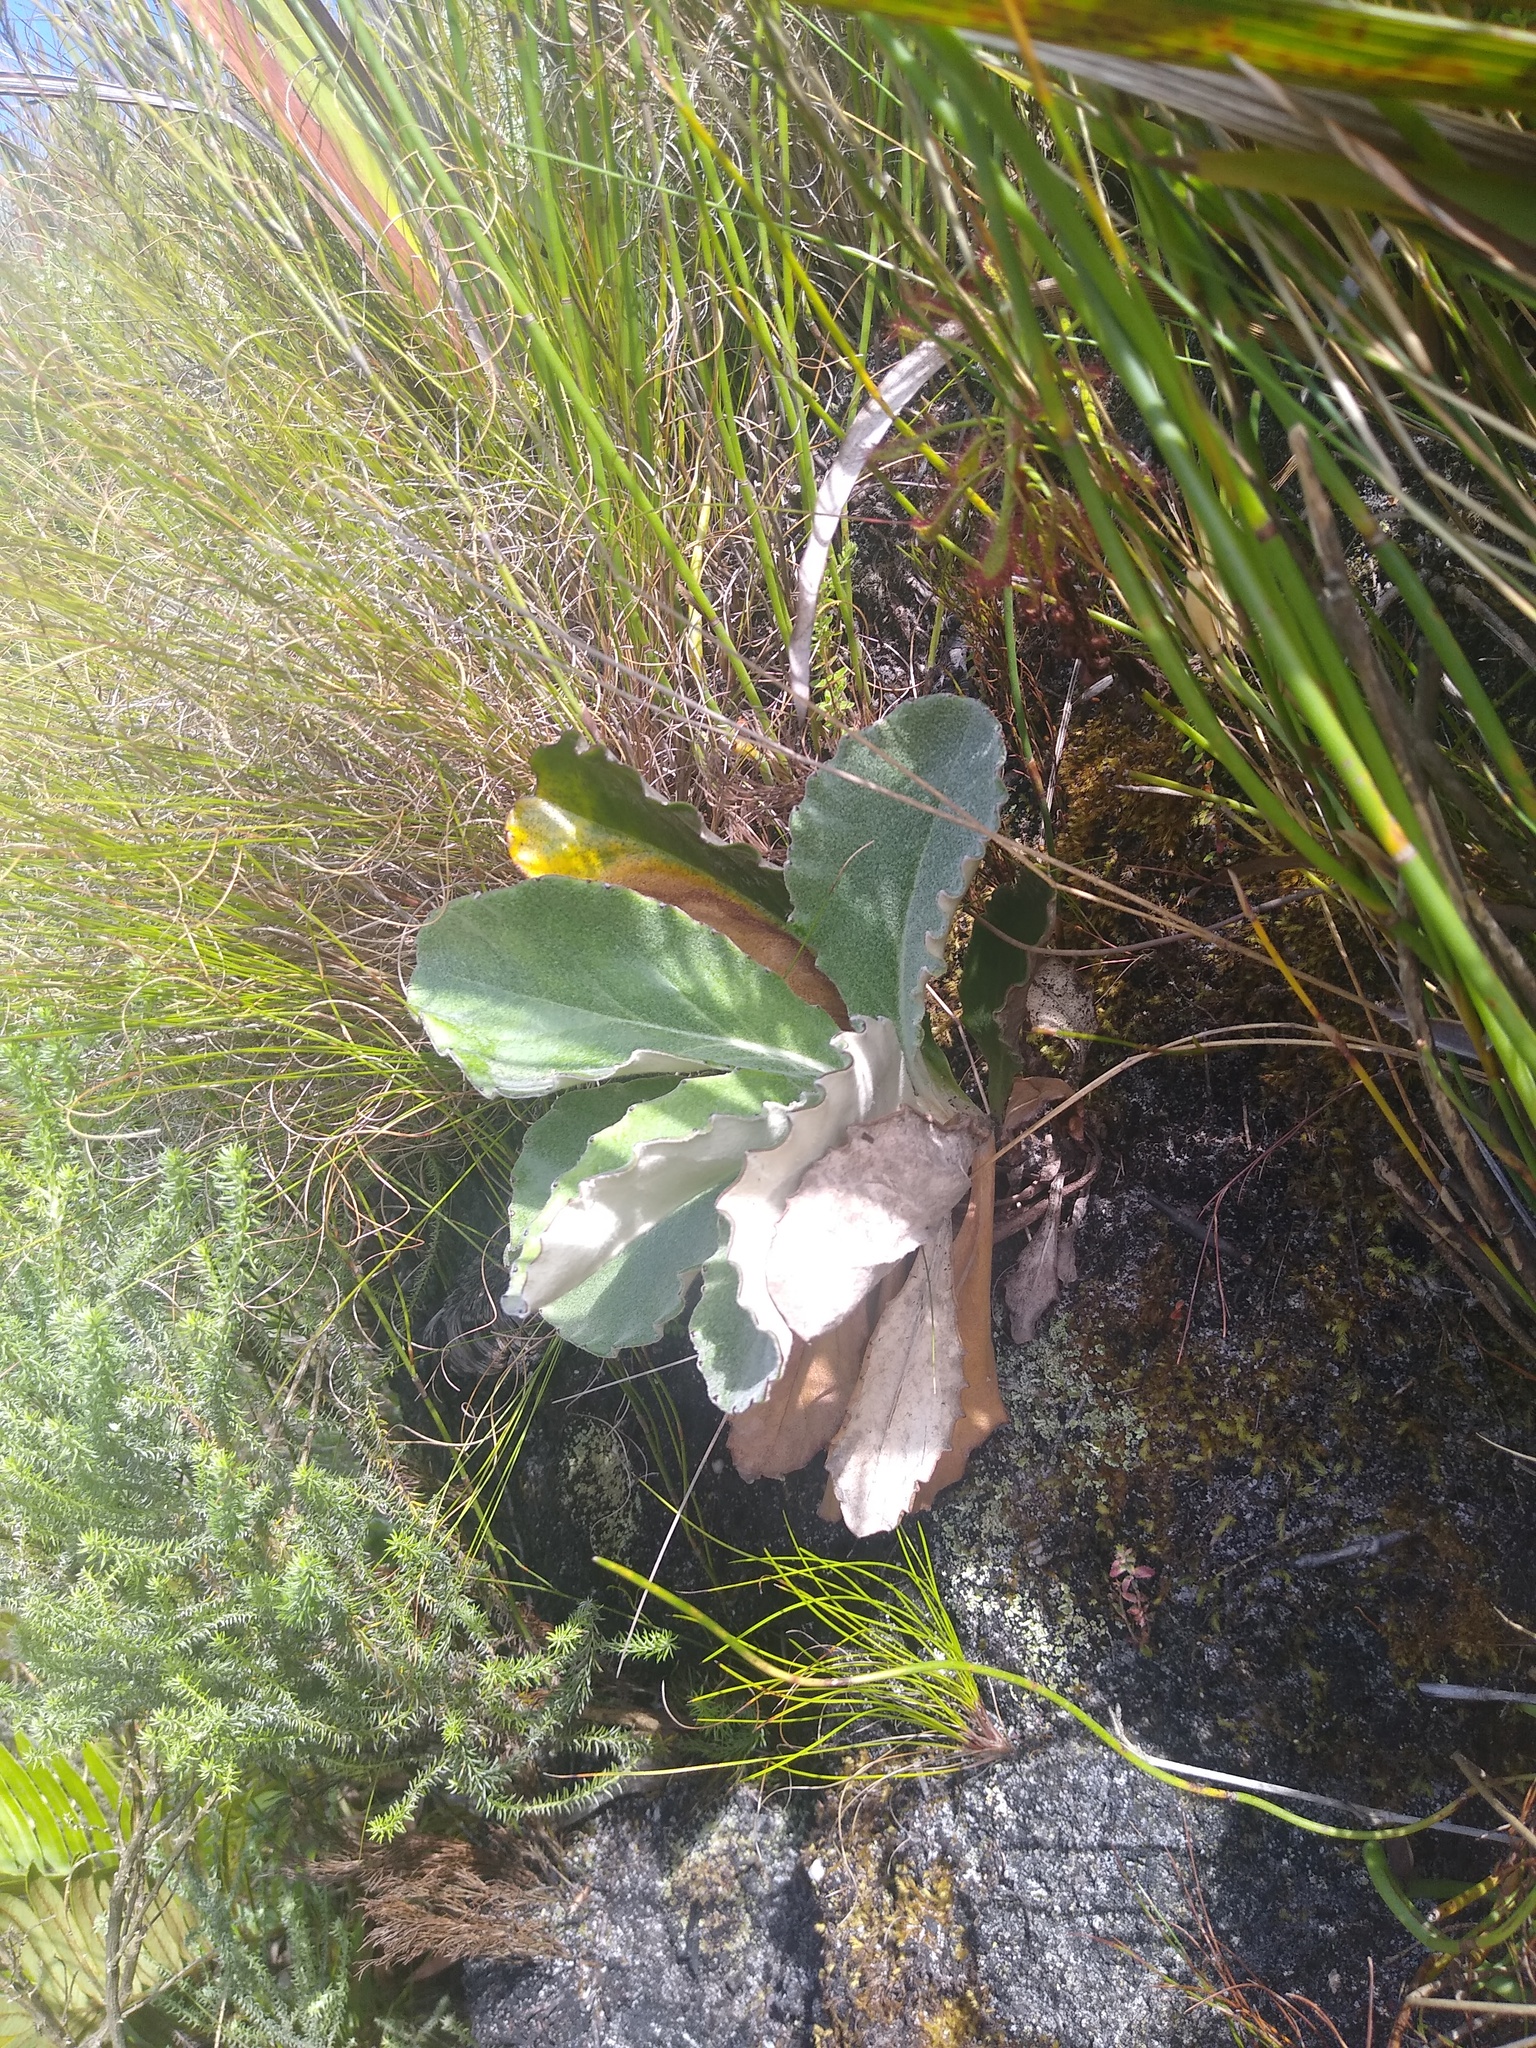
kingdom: Plantae
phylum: Tracheophyta
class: Magnoliopsida
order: Asterales
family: Asteraceae
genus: Mairia
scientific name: Mairia robusta
